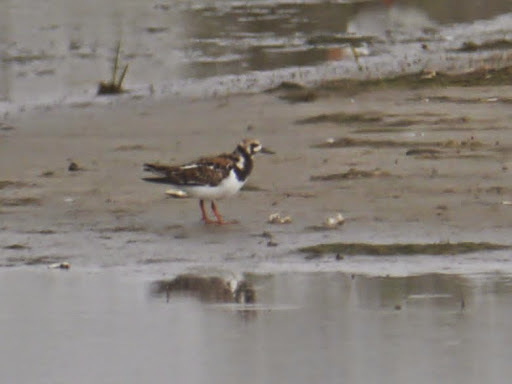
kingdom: Animalia
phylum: Chordata
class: Aves
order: Charadriiformes
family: Scolopacidae
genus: Arenaria
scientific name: Arenaria interpres
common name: Ruddy turnstone
